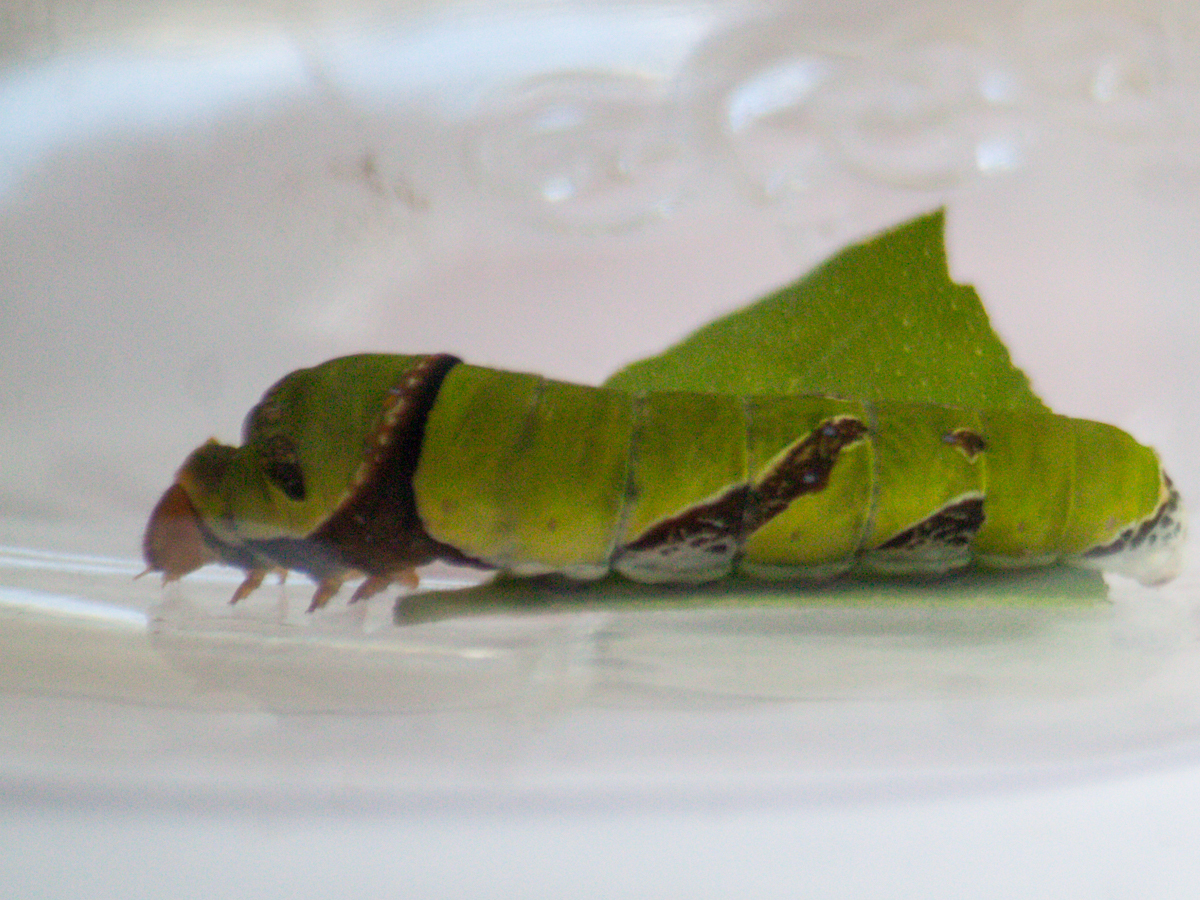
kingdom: Animalia
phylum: Arthropoda
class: Insecta
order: Lepidoptera
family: Papilionidae
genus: Papilio
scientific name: Papilio polytes
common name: Common mormon
